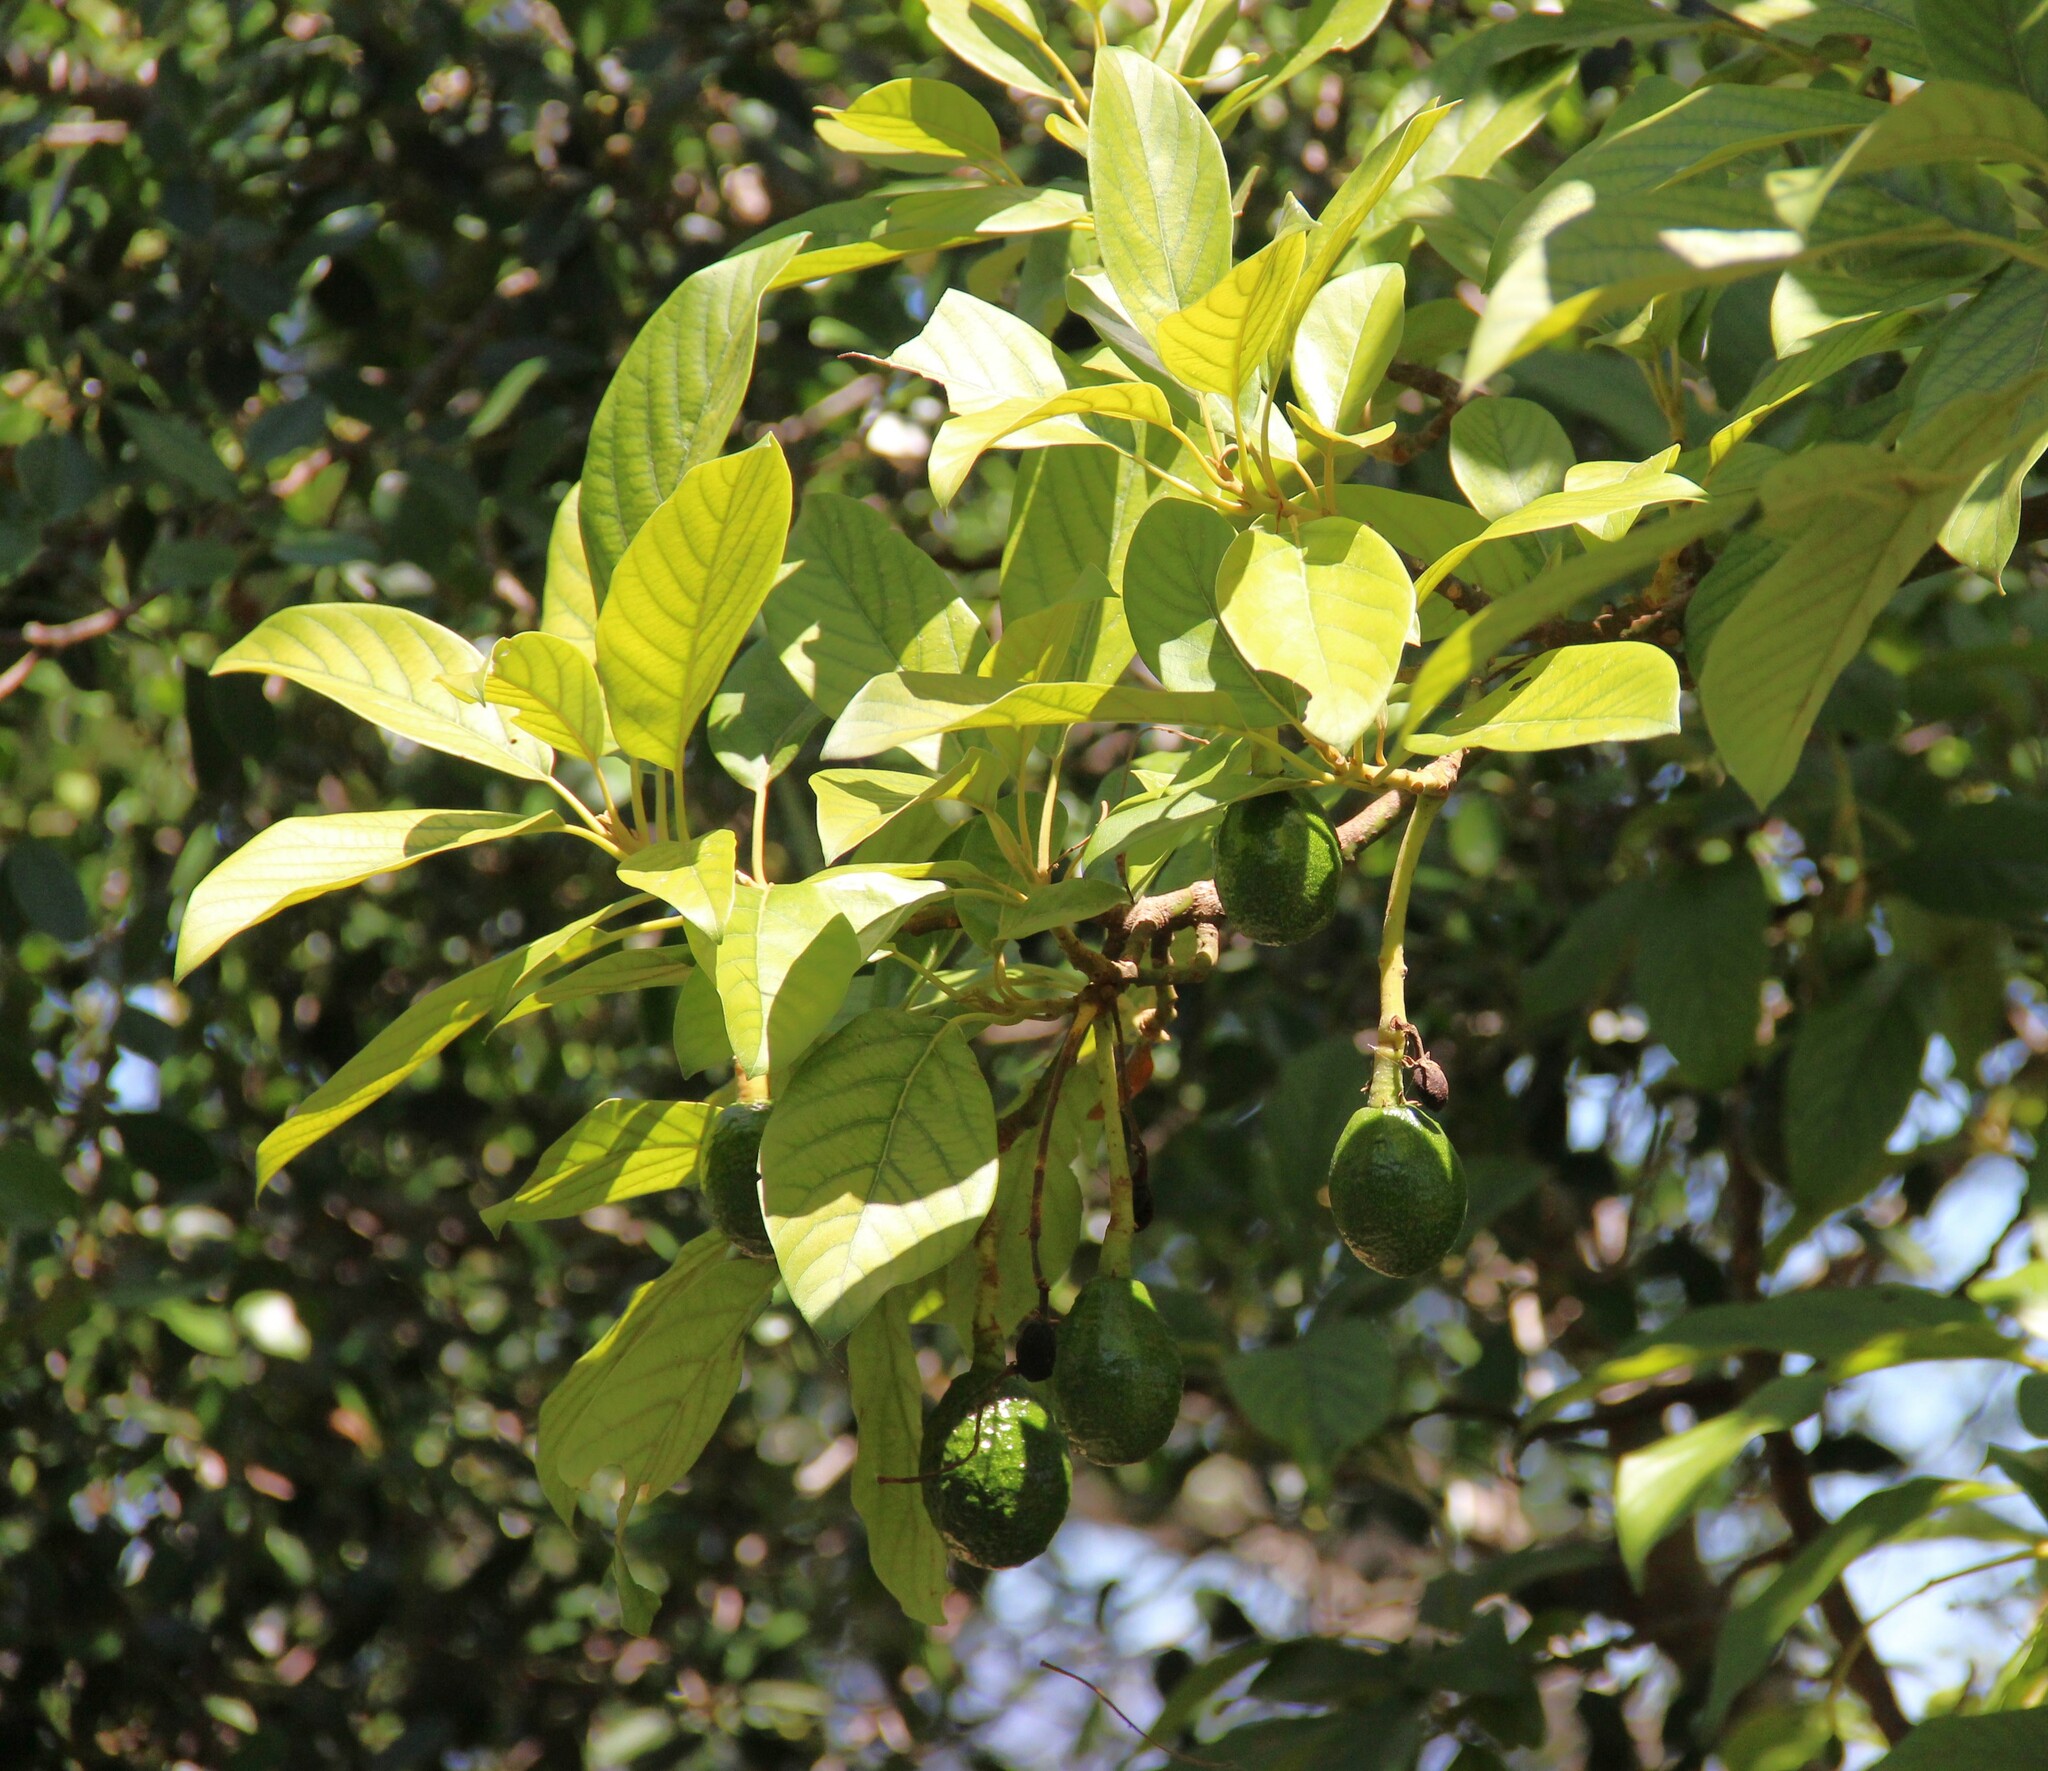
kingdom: Plantae
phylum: Tracheophyta
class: Magnoliopsida
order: Laurales
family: Lauraceae
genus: Persea
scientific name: Persea americana
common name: Avocado
